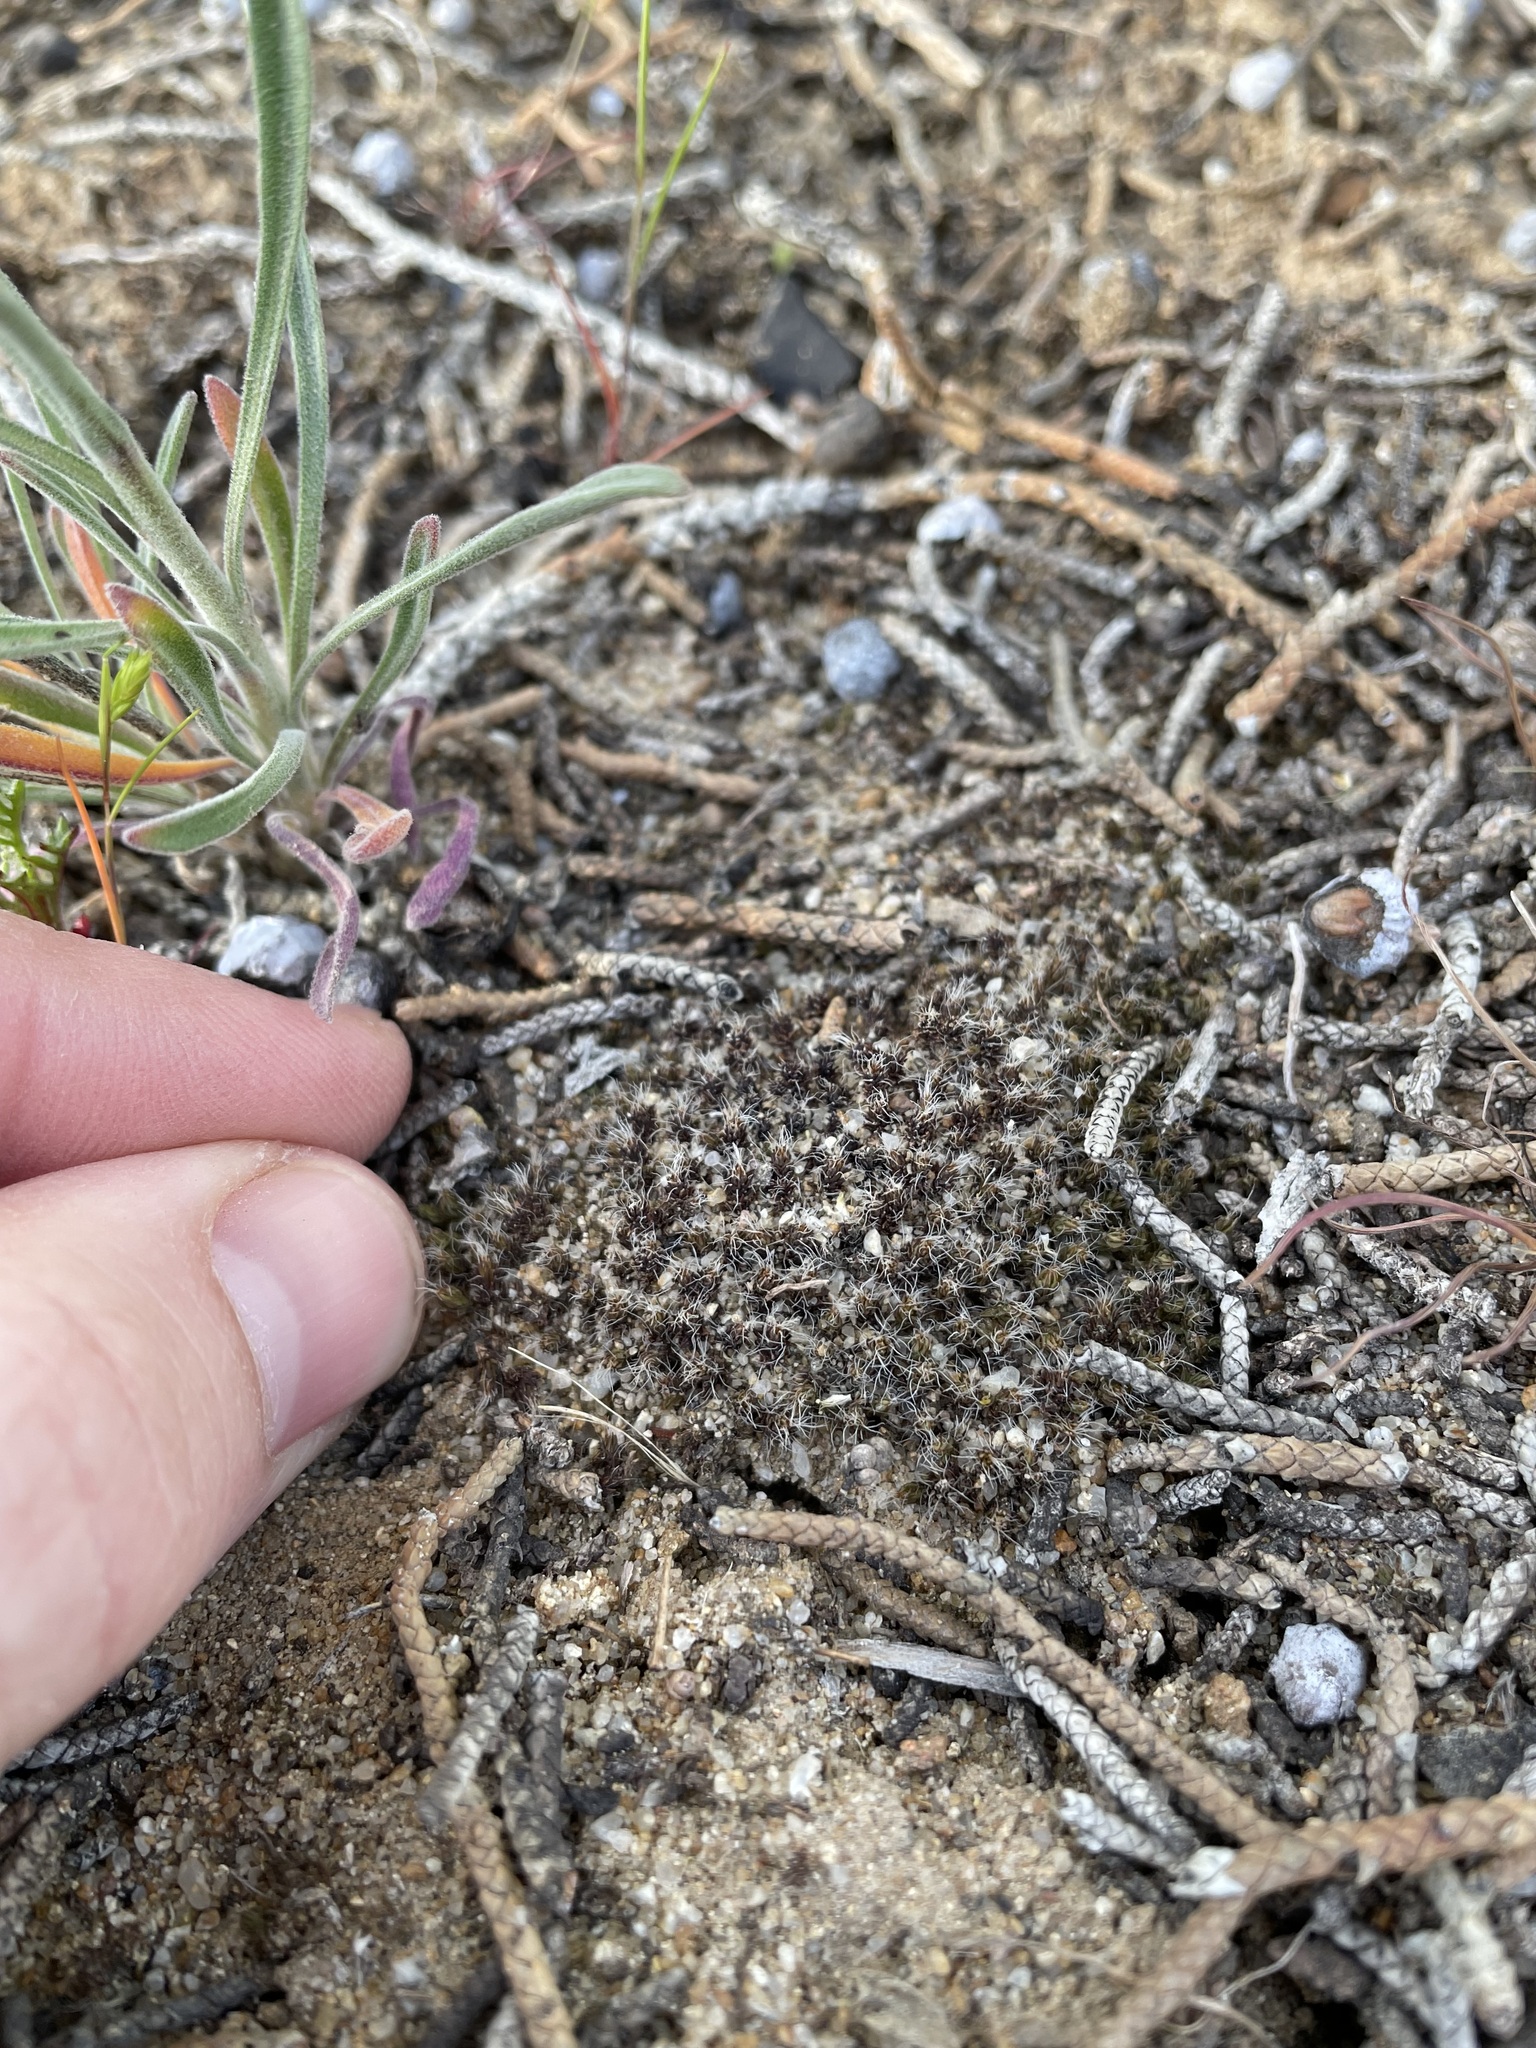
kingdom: Plantae
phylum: Bryophyta
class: Bryopsida
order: Pottiales
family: Pottiaceae
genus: Syntrichia
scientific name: Syntrichia
